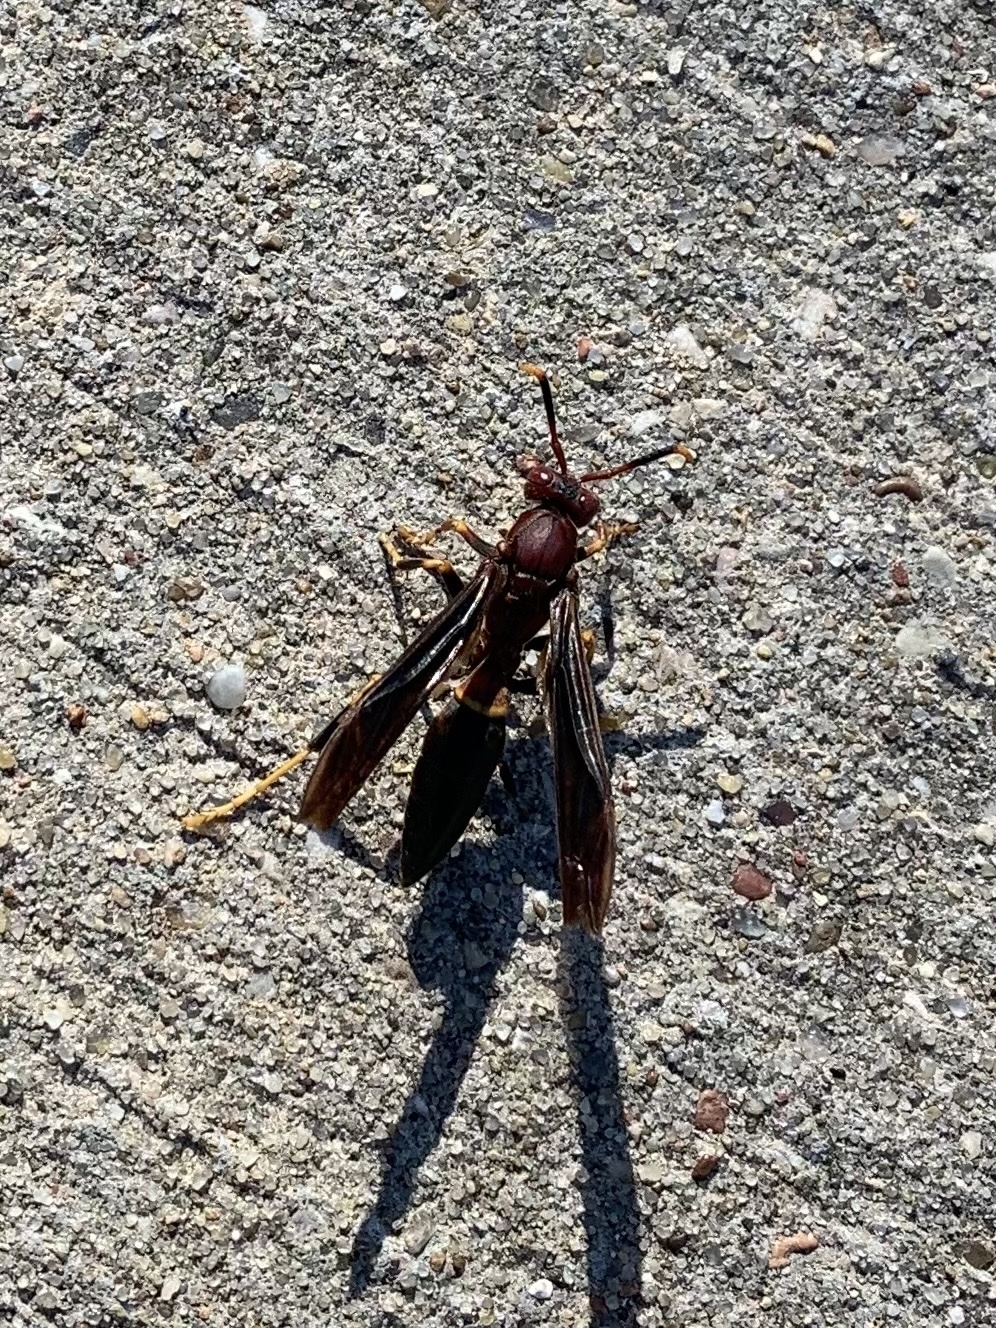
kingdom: Animalia
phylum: Arthropoda
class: Insecta
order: Hymenoptera
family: Eumenidae
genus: Polistes
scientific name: Polistes annularis
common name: Ringed paper wasp
